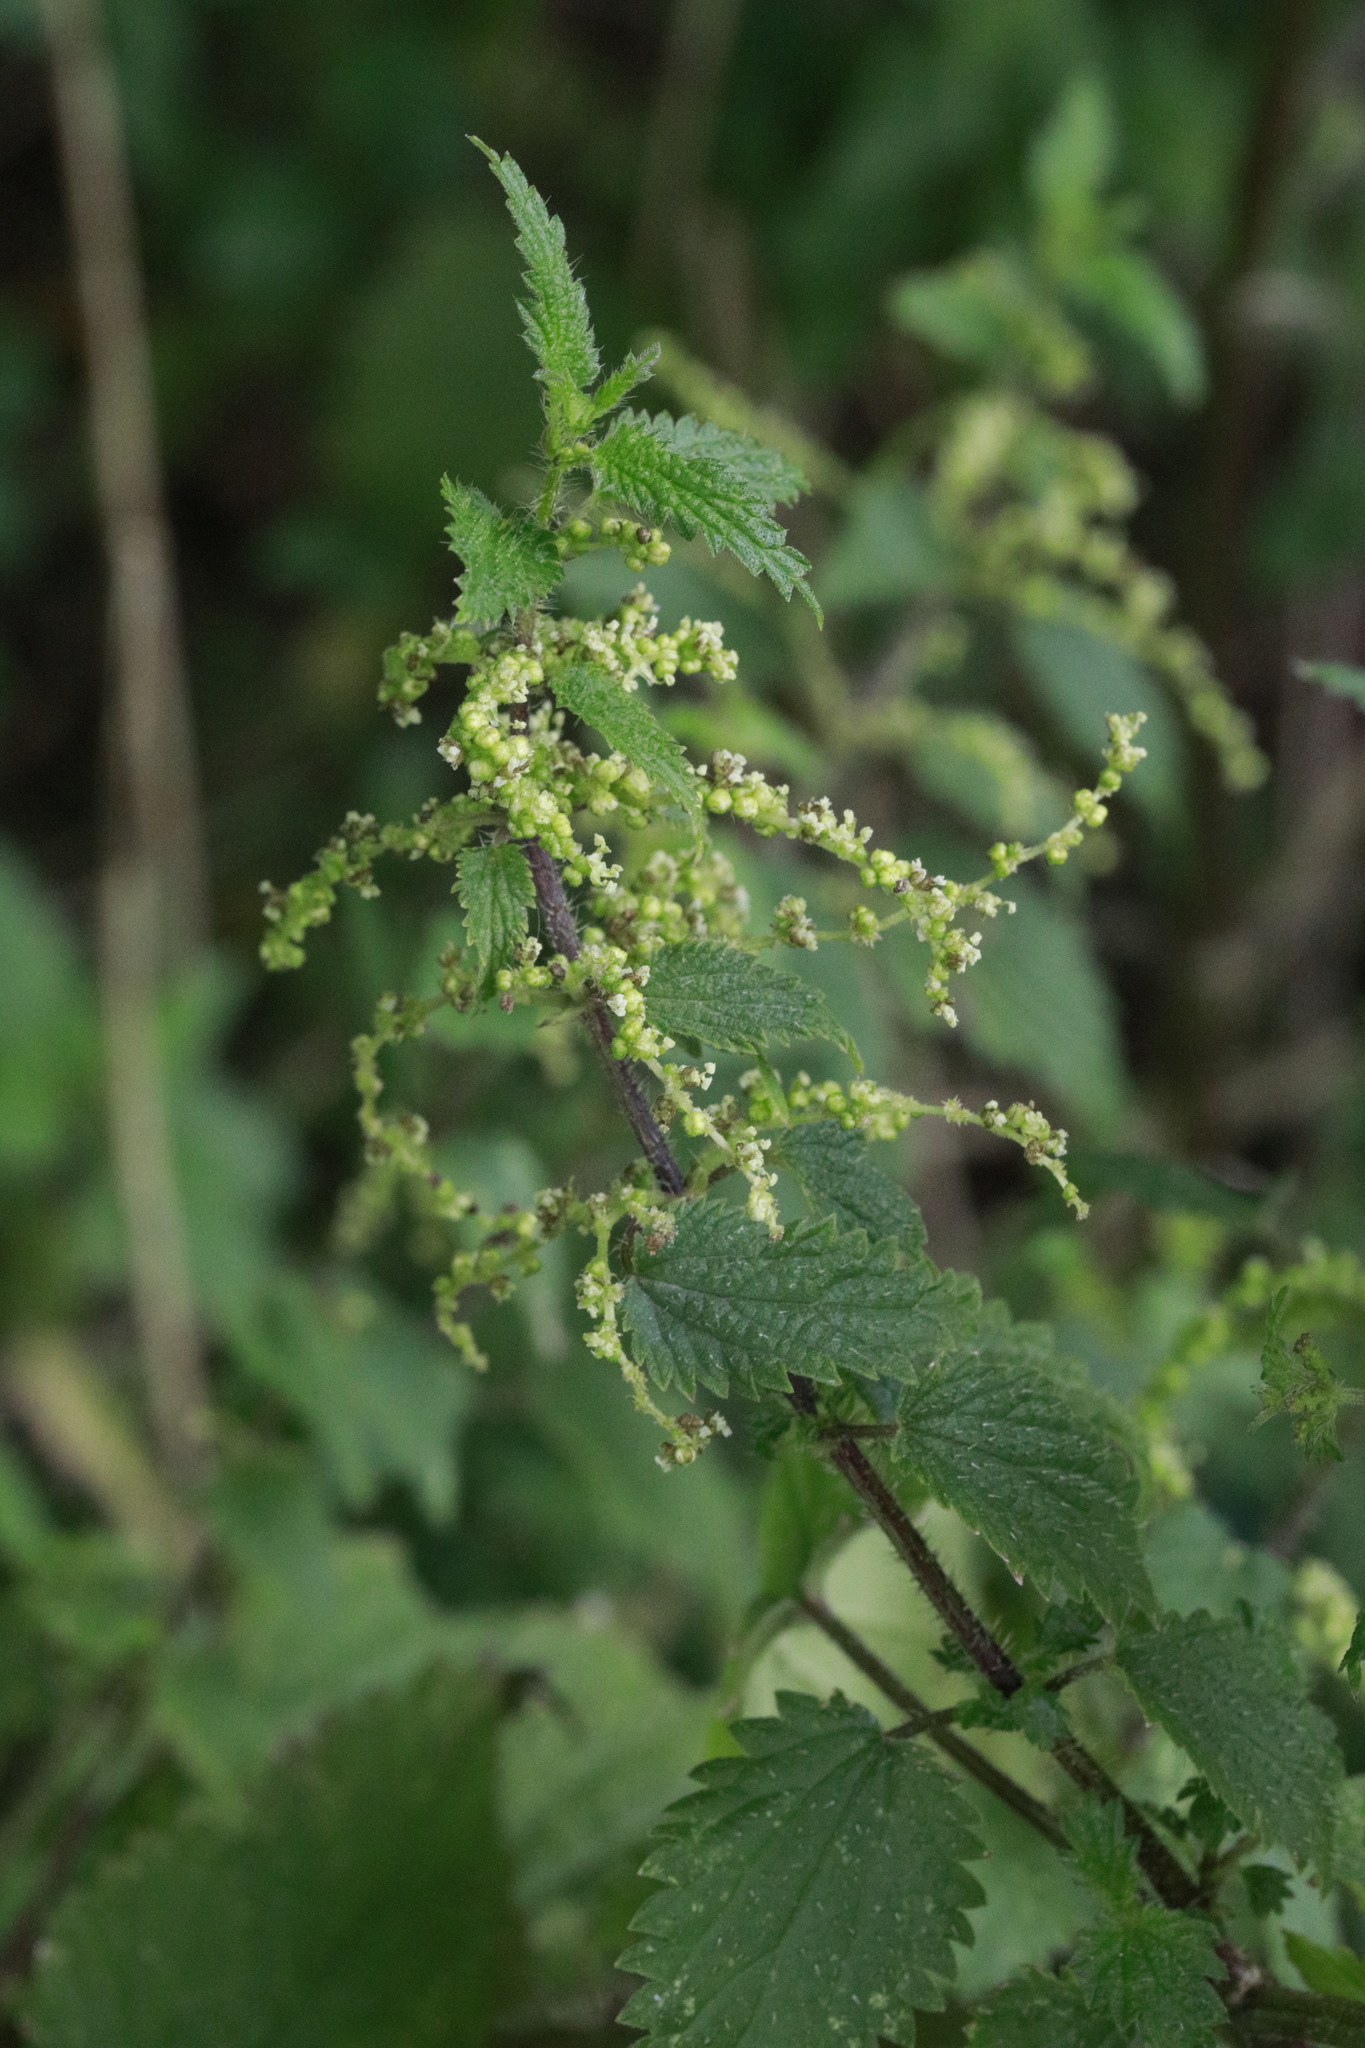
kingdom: Plantae
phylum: Tracheophyta
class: Magnoliopsida
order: Rosales
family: Urticaceae
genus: Urtica
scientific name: Urtica dioica
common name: Common nettle
